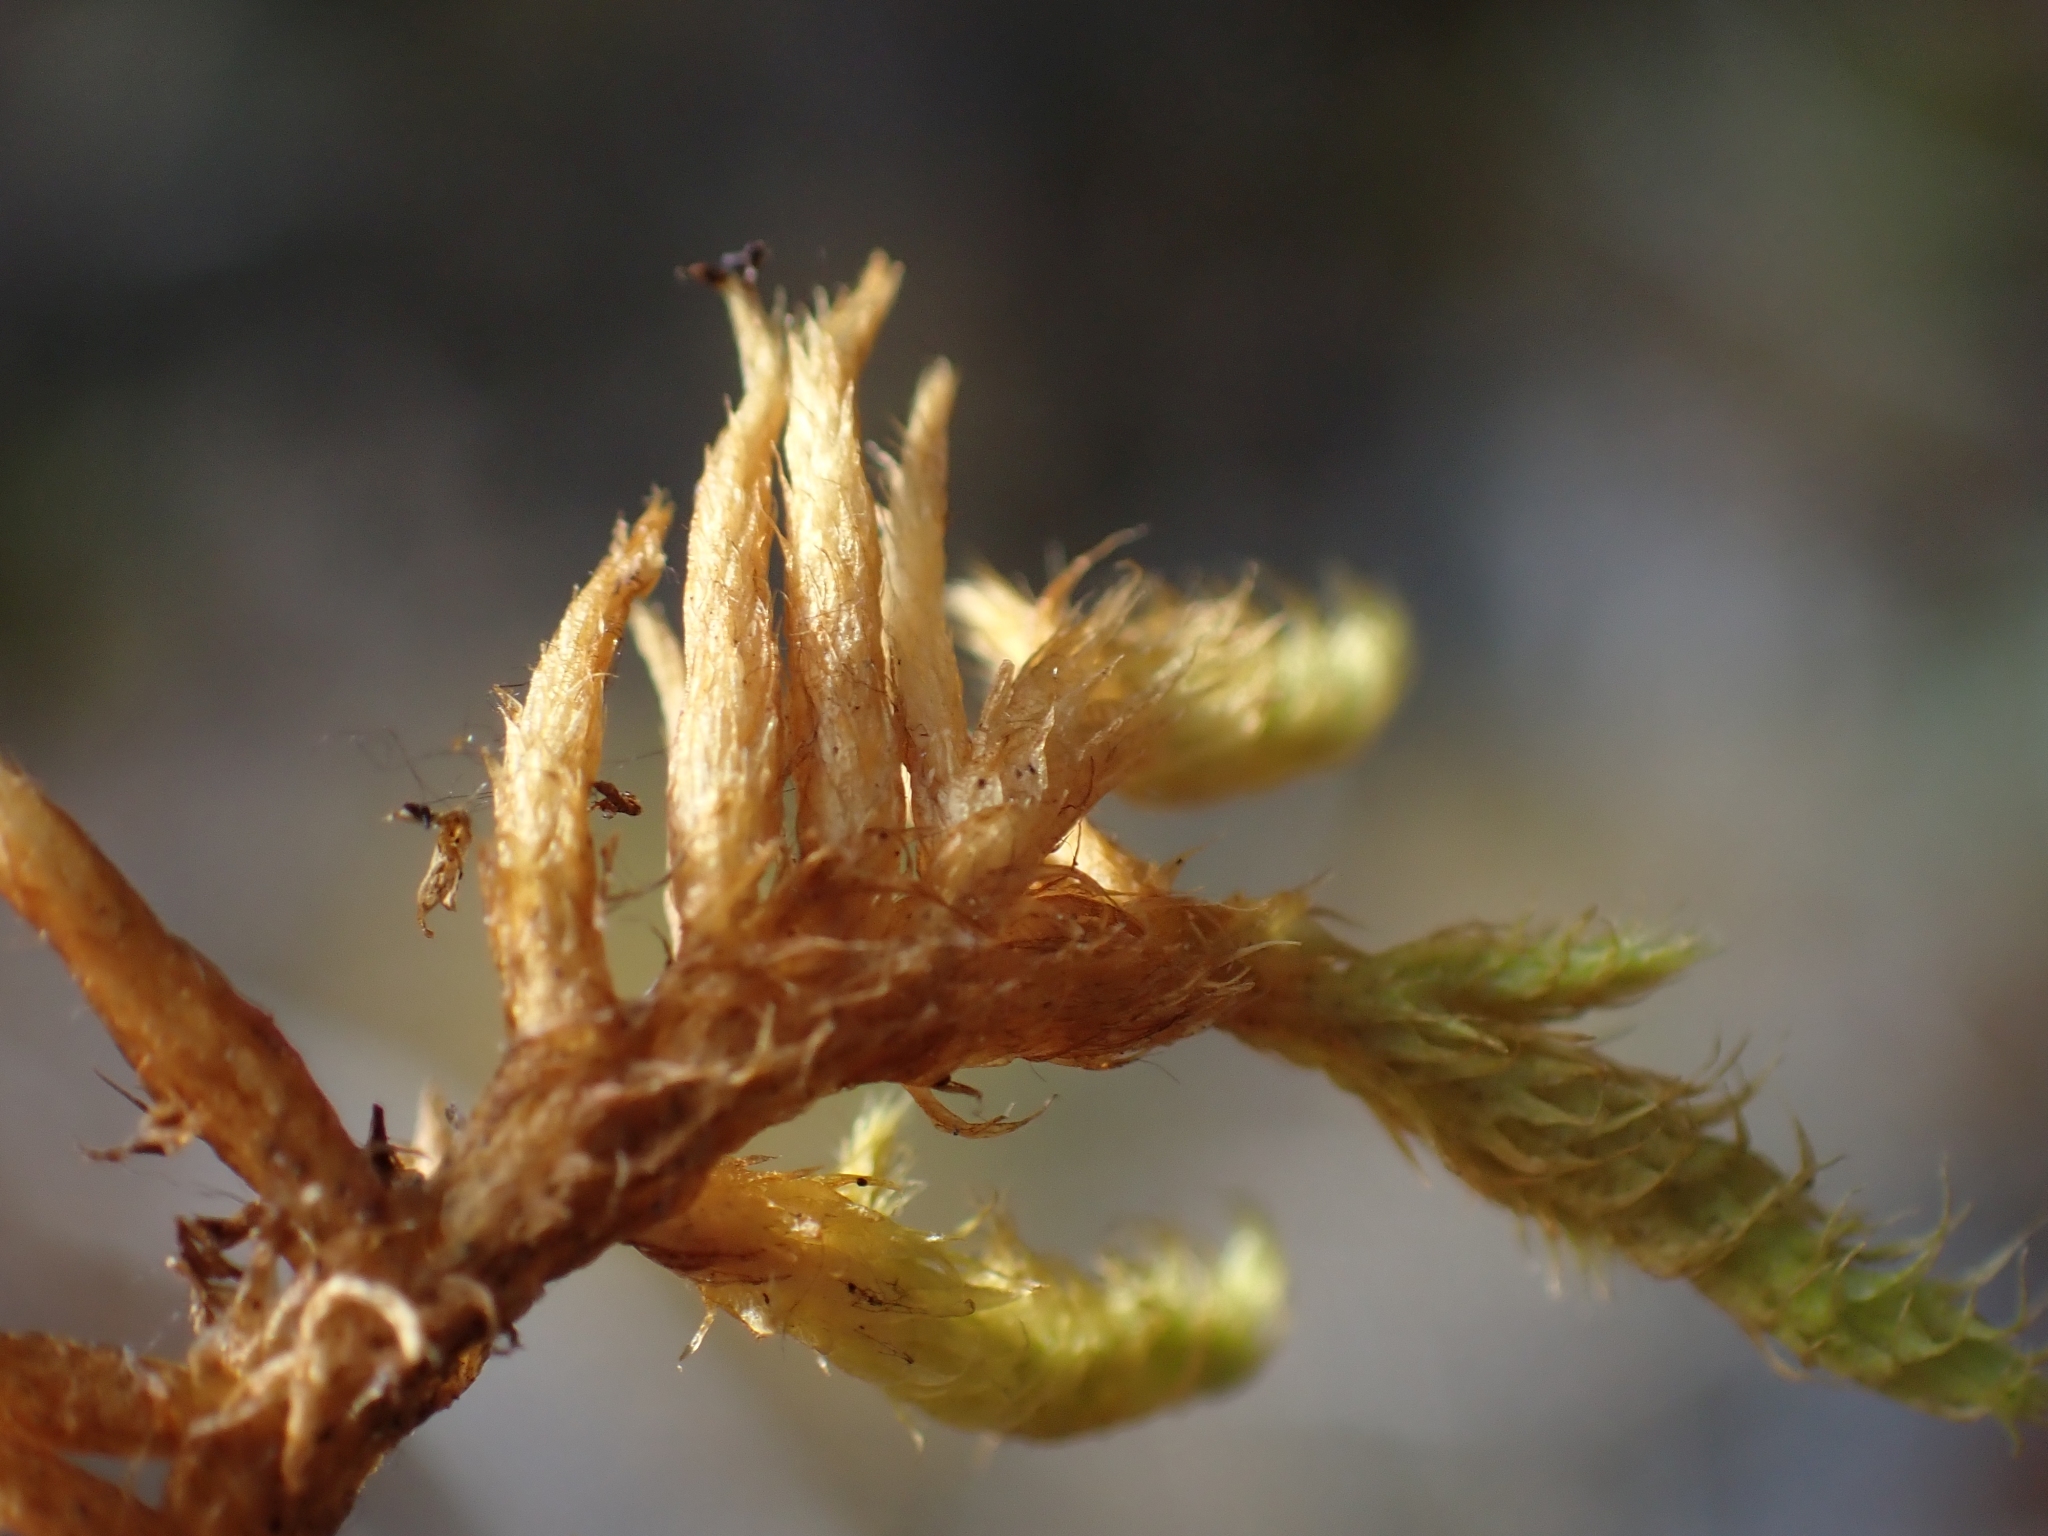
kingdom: Plantae
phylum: Bryophyta
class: Bryopsida
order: Hypnales
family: Rhytidiaceae
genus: Rhytidium
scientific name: Rhytidium rugosum
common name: Wrinkle-leaved moss
